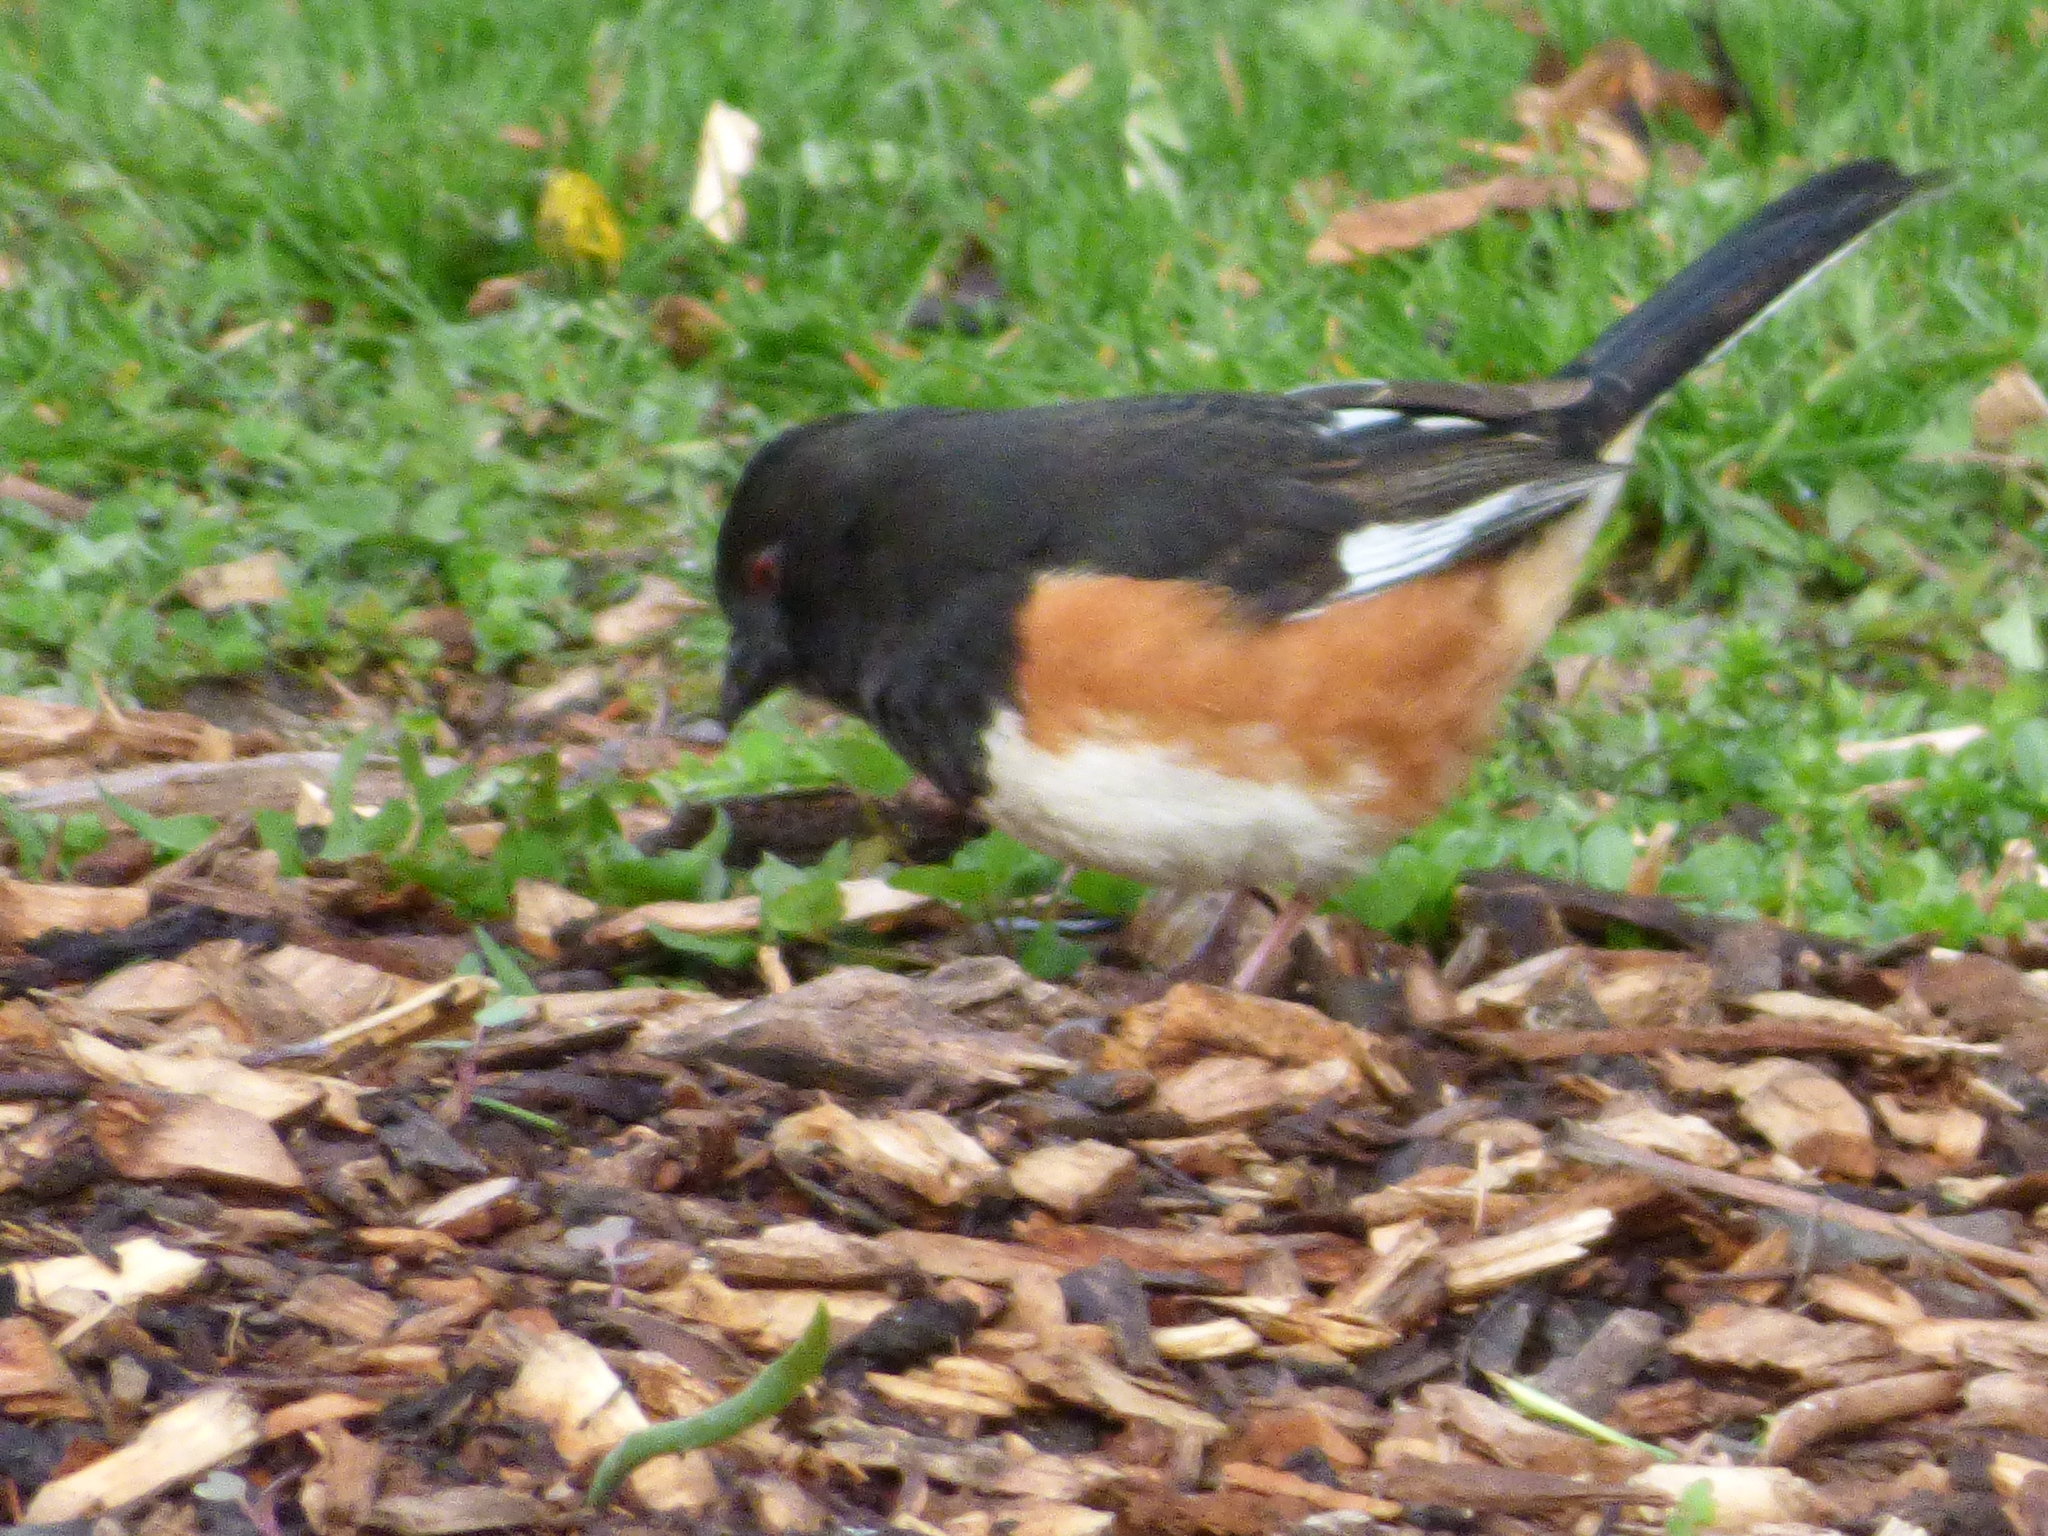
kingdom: Animalia
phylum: Chordata
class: Aves
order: Passeriformes
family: Passerellidae
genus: Pipilo
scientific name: Pipilo erythrophthalmus
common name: Eastern towhee
